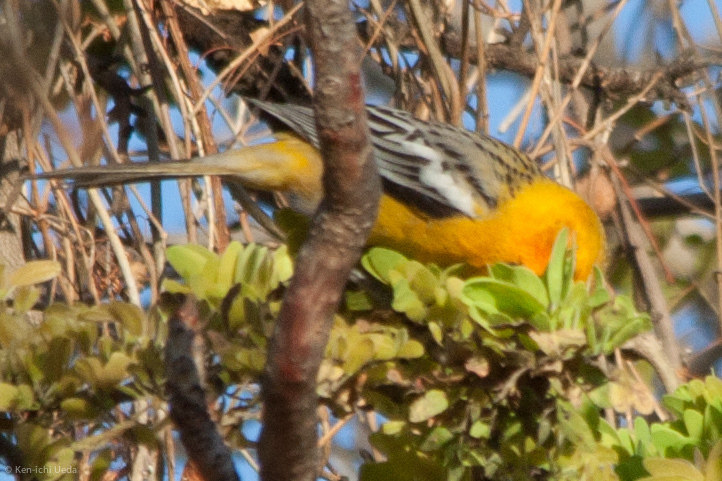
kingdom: Animalia
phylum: Chordata
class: Aves
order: Passeriformes
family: Icteridae
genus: Icterus
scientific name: Icterus pustulatus
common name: Streak-backed oriole
